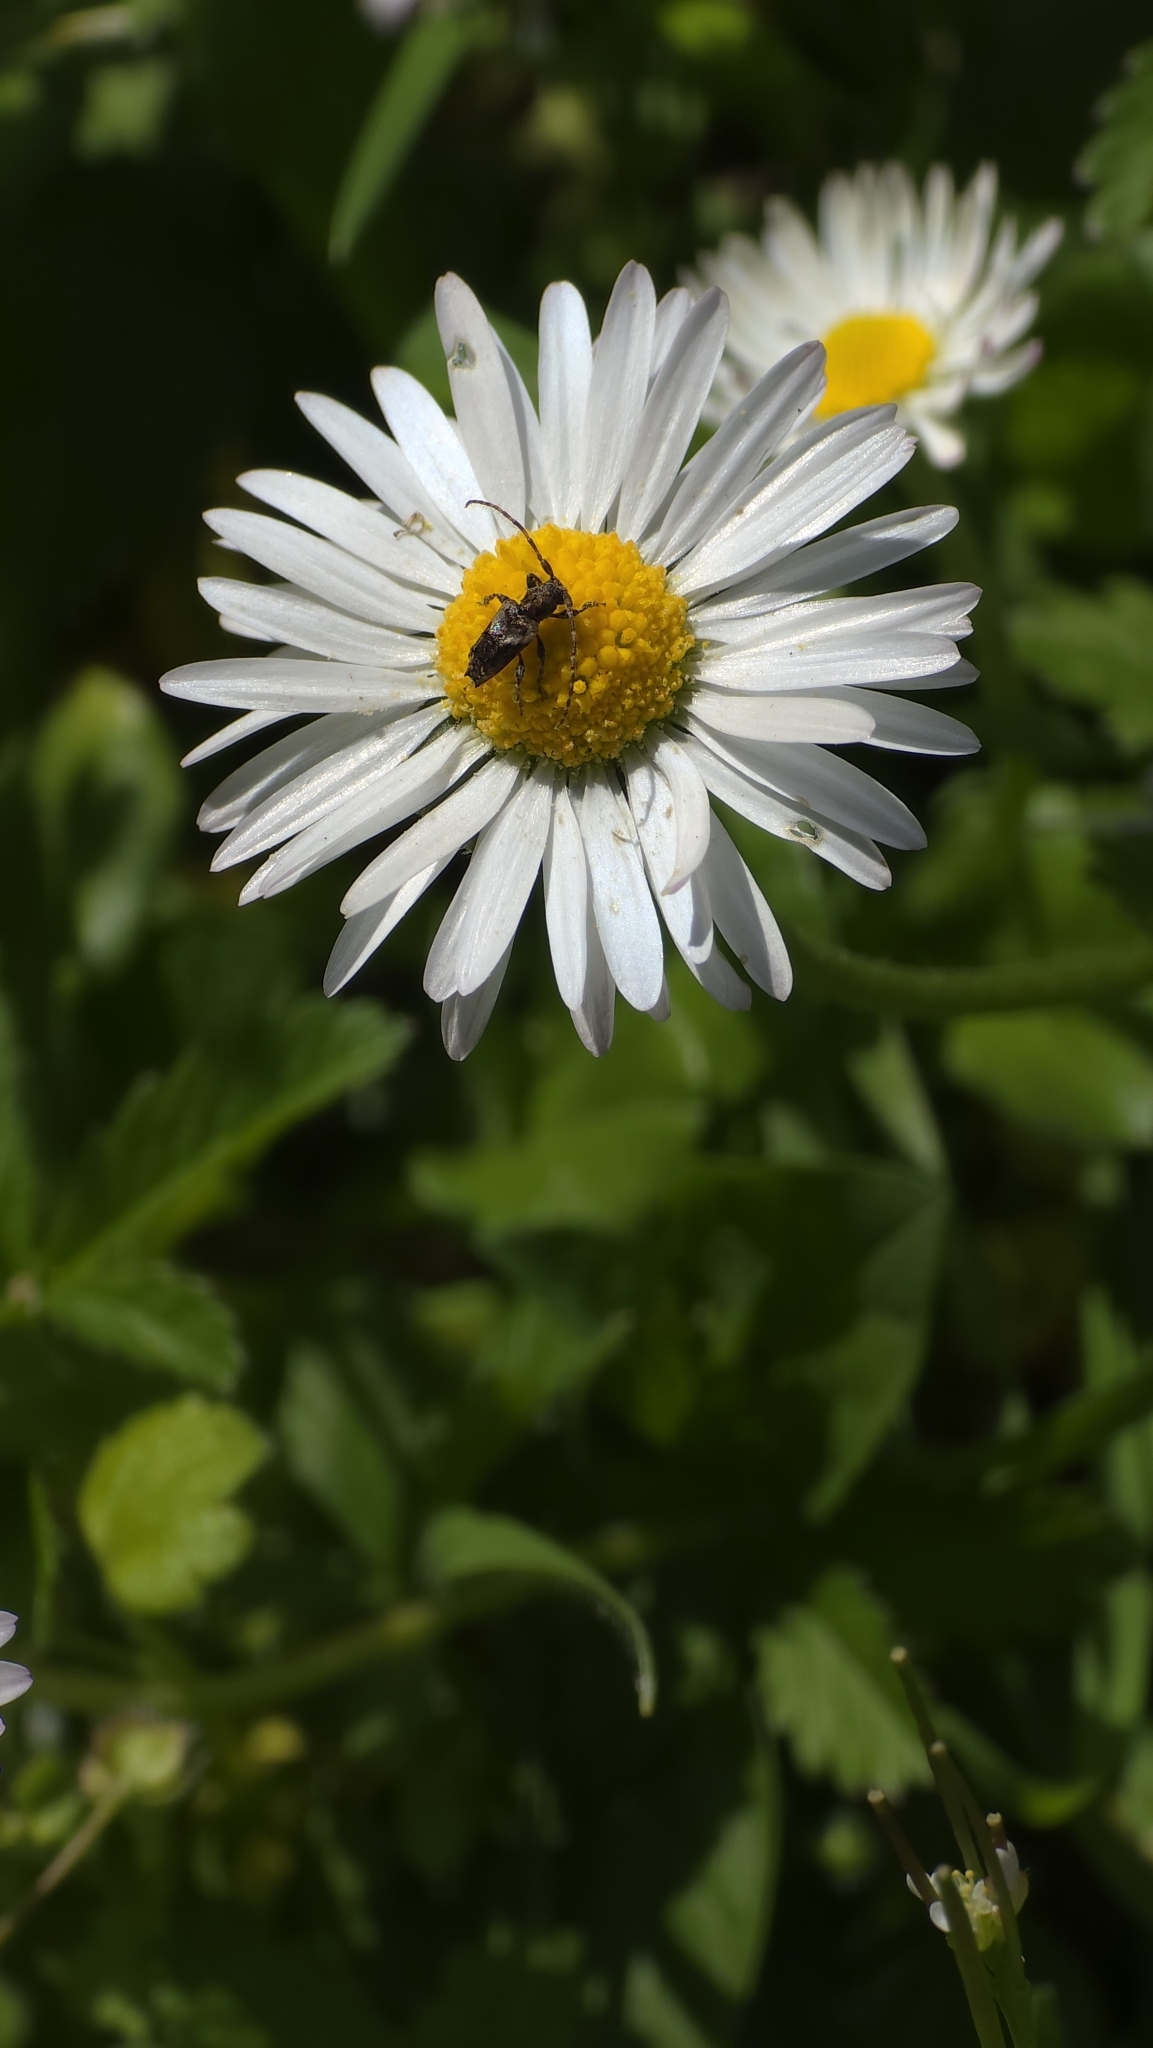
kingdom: Animalia
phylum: Arthropoda
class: Insecta
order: Coleoptera
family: Cerambycidae
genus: Pogonocherus
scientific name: Pogonocherus hispidus
